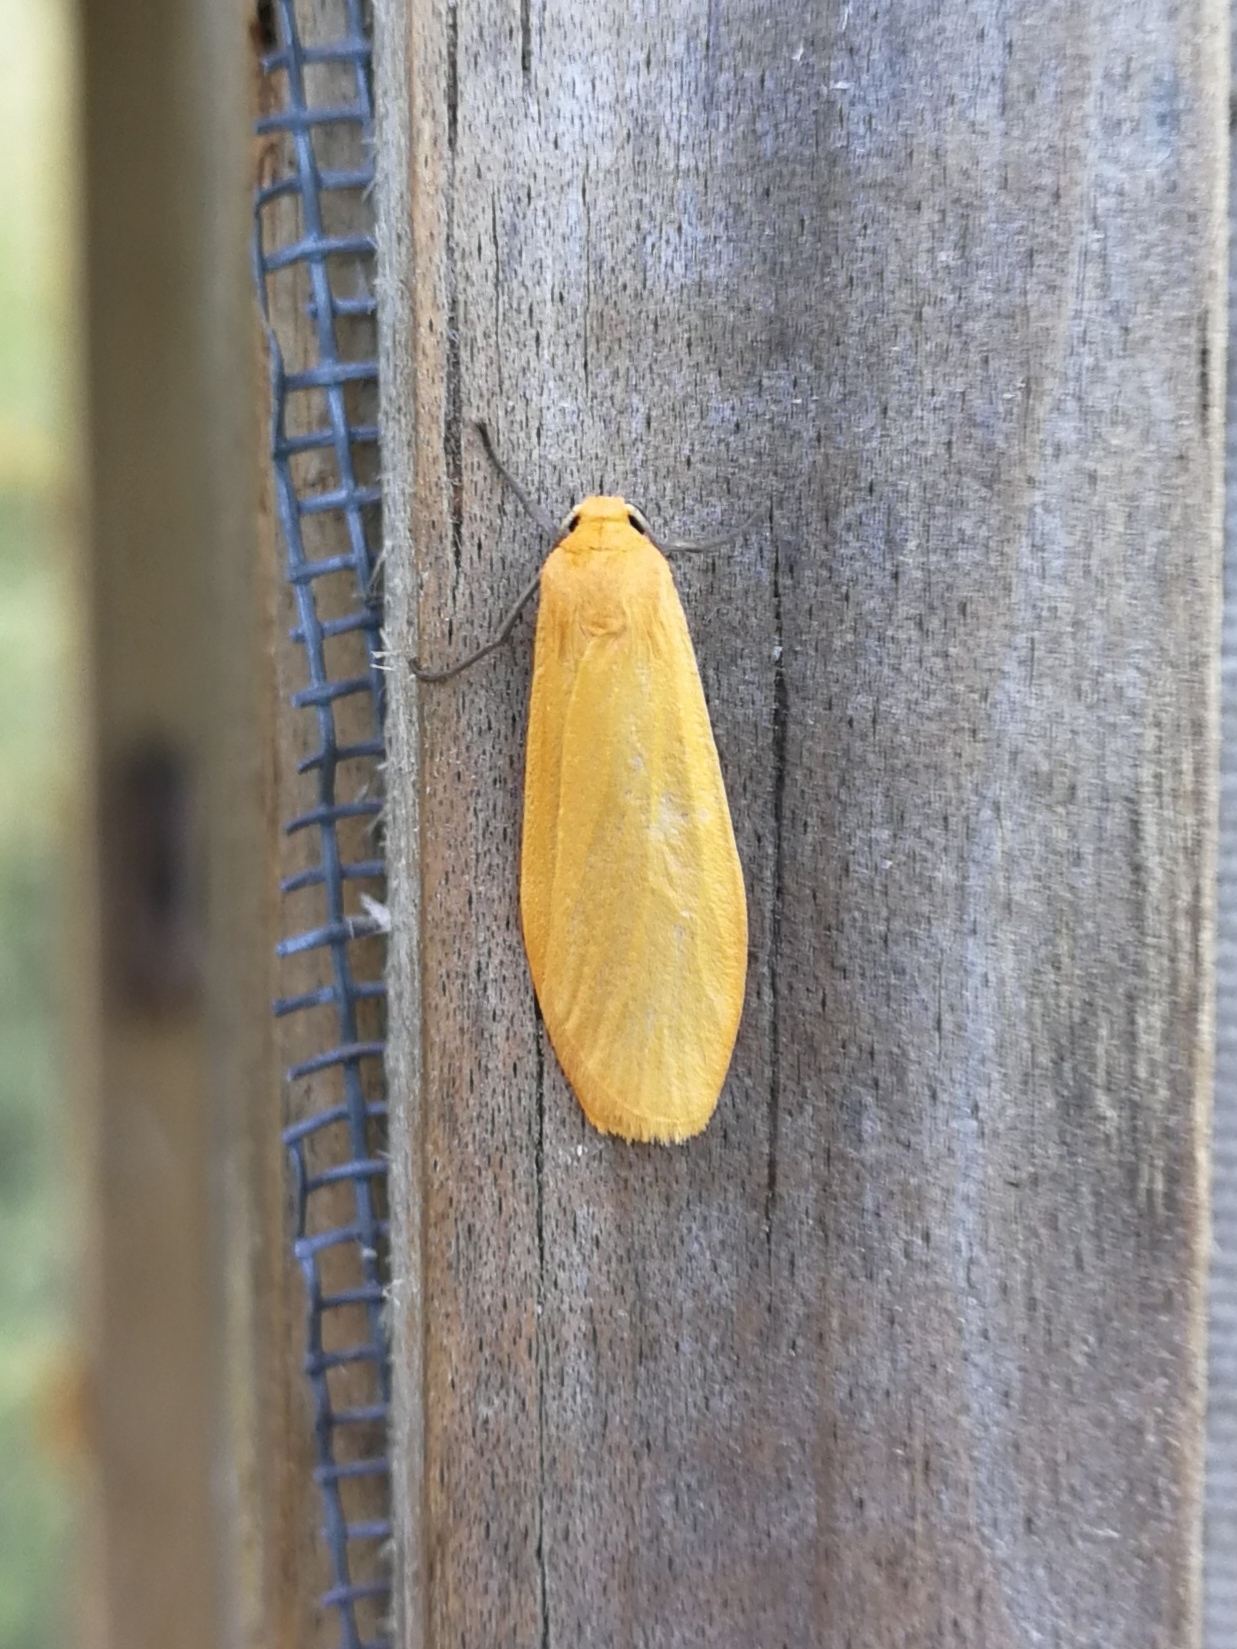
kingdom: Animalia
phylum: Arthropoda
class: Insecta
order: Lepidoptera
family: Erebidae
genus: Wittia
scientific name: Wittia sororcula
